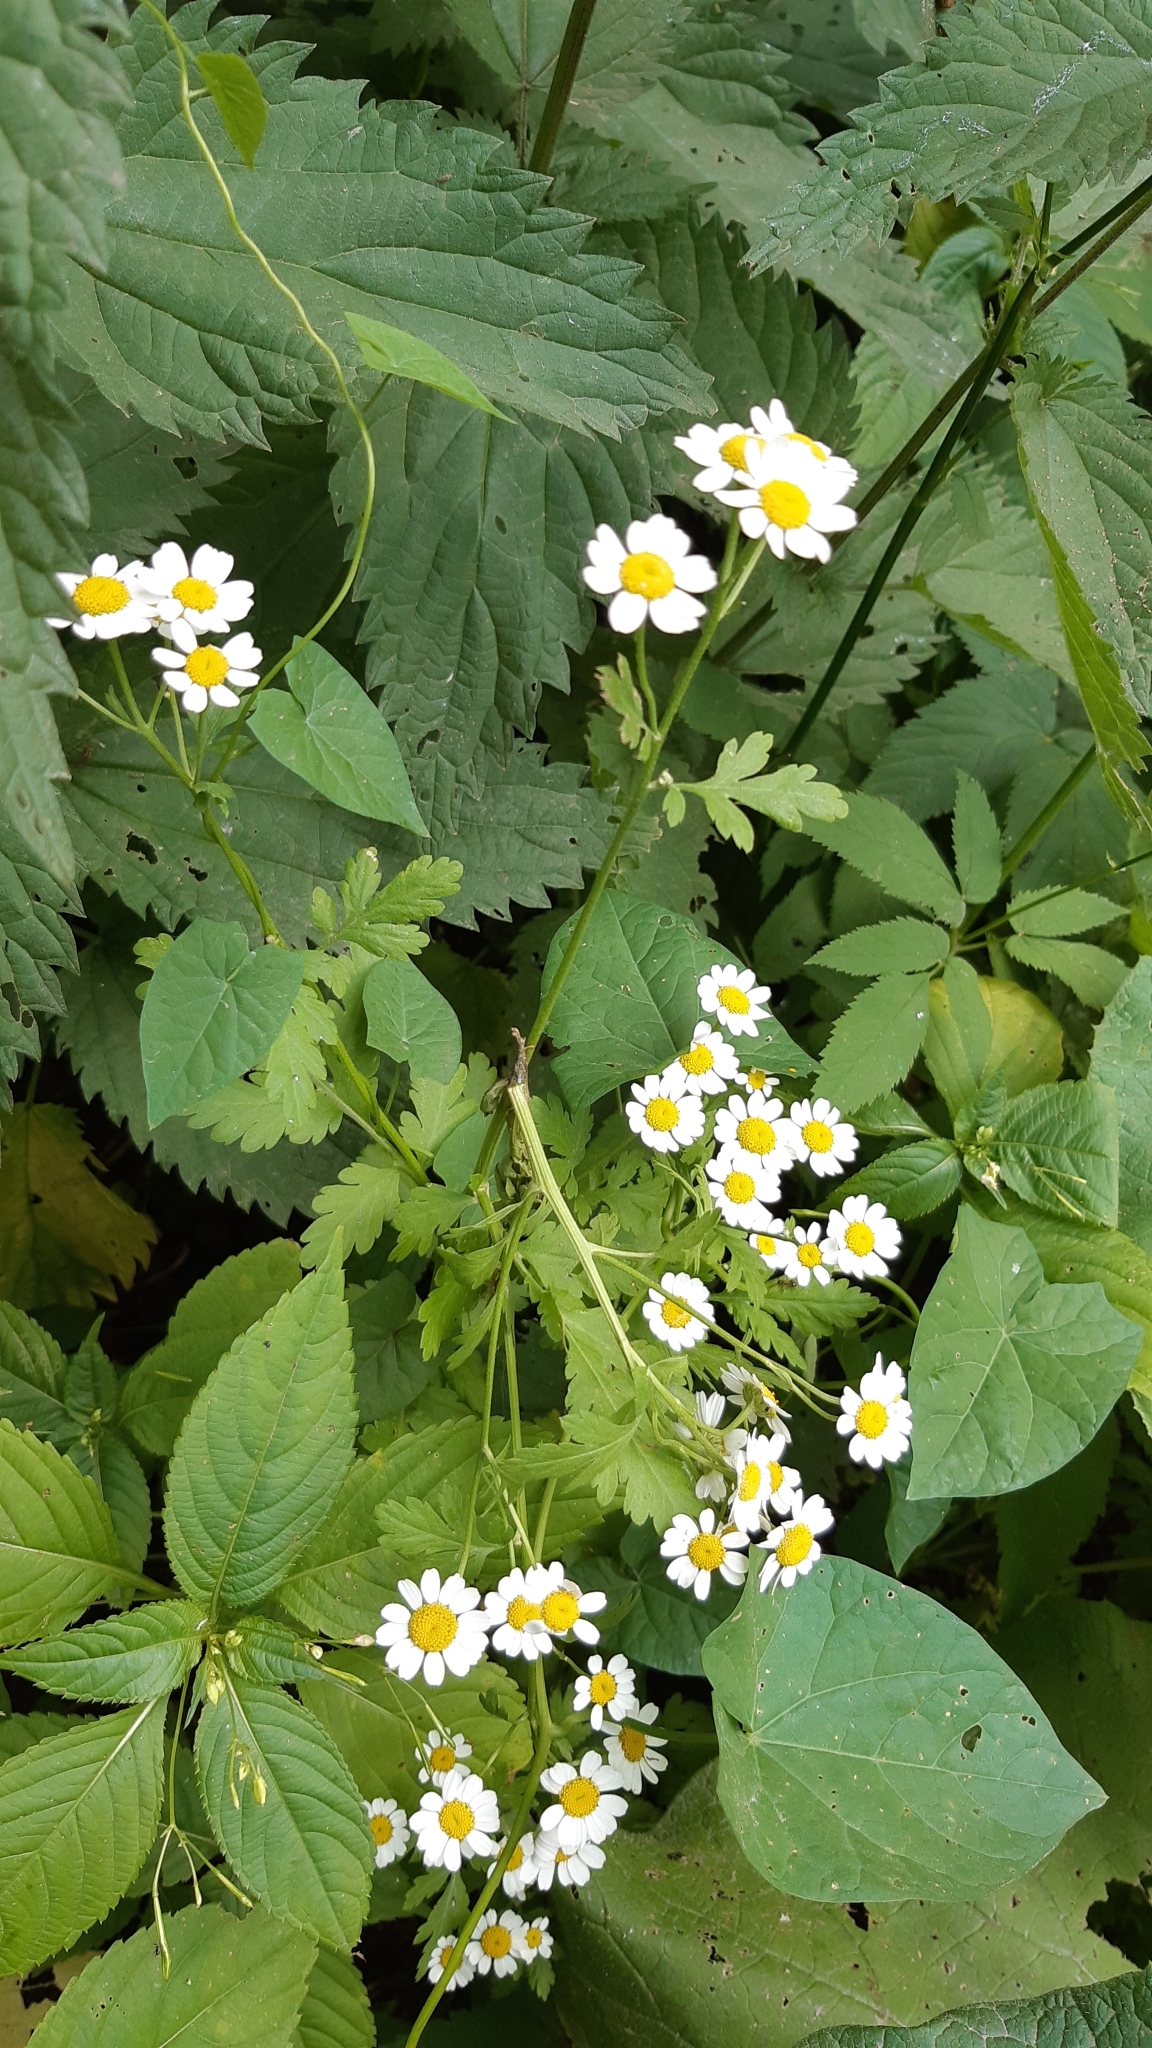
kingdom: Plantae
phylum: Tracheophyta
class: Magnoliopsida
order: Asterales
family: Asteraceae
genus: Tanacetum
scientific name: Tanacetum parthenium
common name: Feverfew
